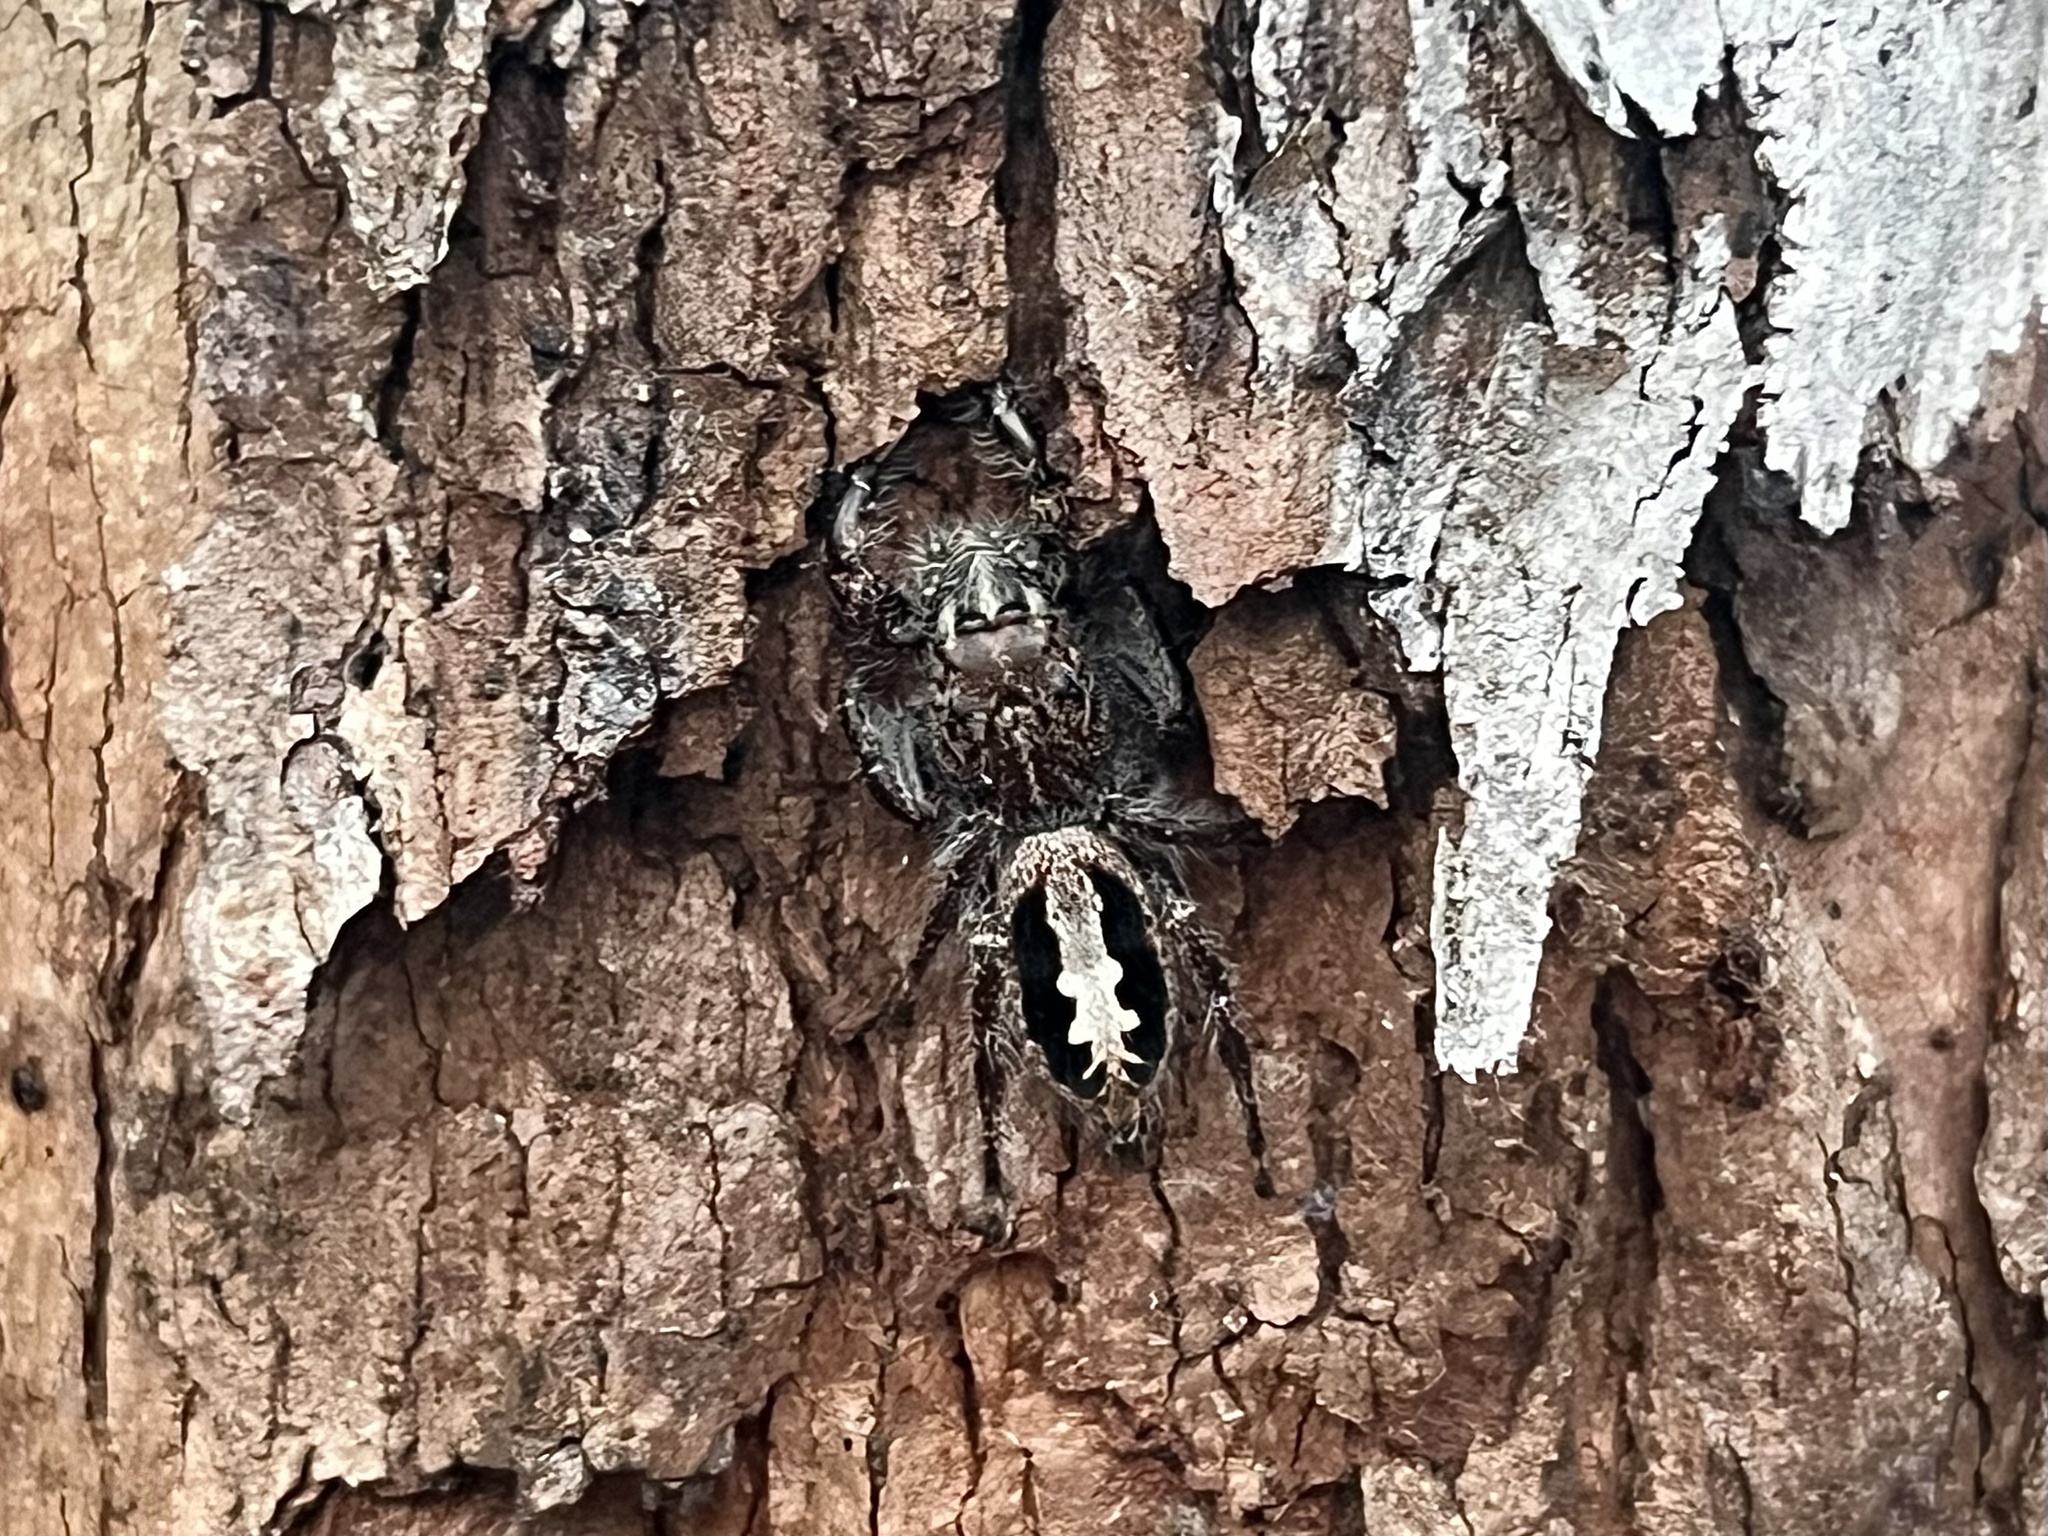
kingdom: Animalia
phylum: Arthropoda
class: Arachnida
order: Araneae
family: Salticidae
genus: Sandalodes
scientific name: Sandalodes superbus
